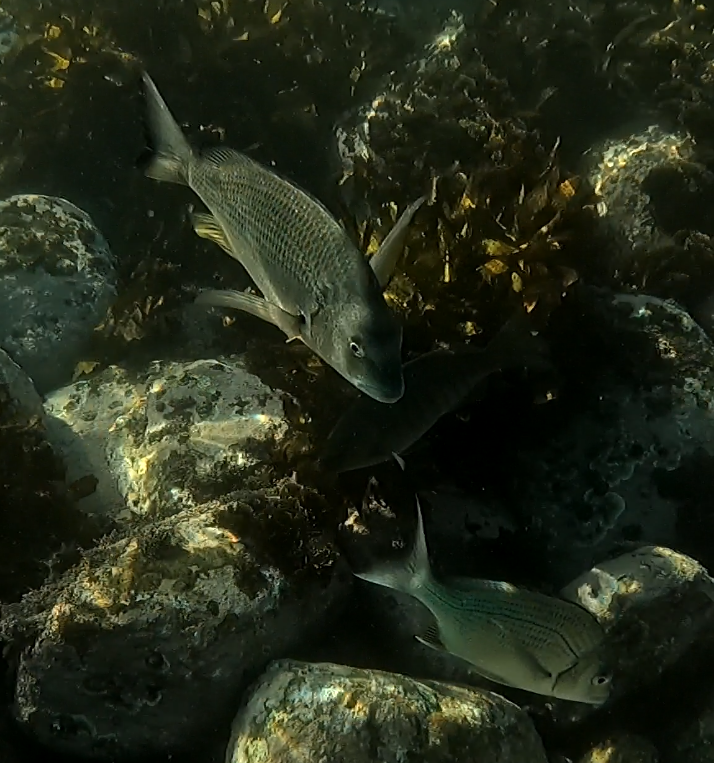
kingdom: Animalia
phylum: Chordata
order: Perciformes
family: Sparidae
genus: Acanthopagrus
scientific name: Acanthopagrus australis
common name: Surf bream
